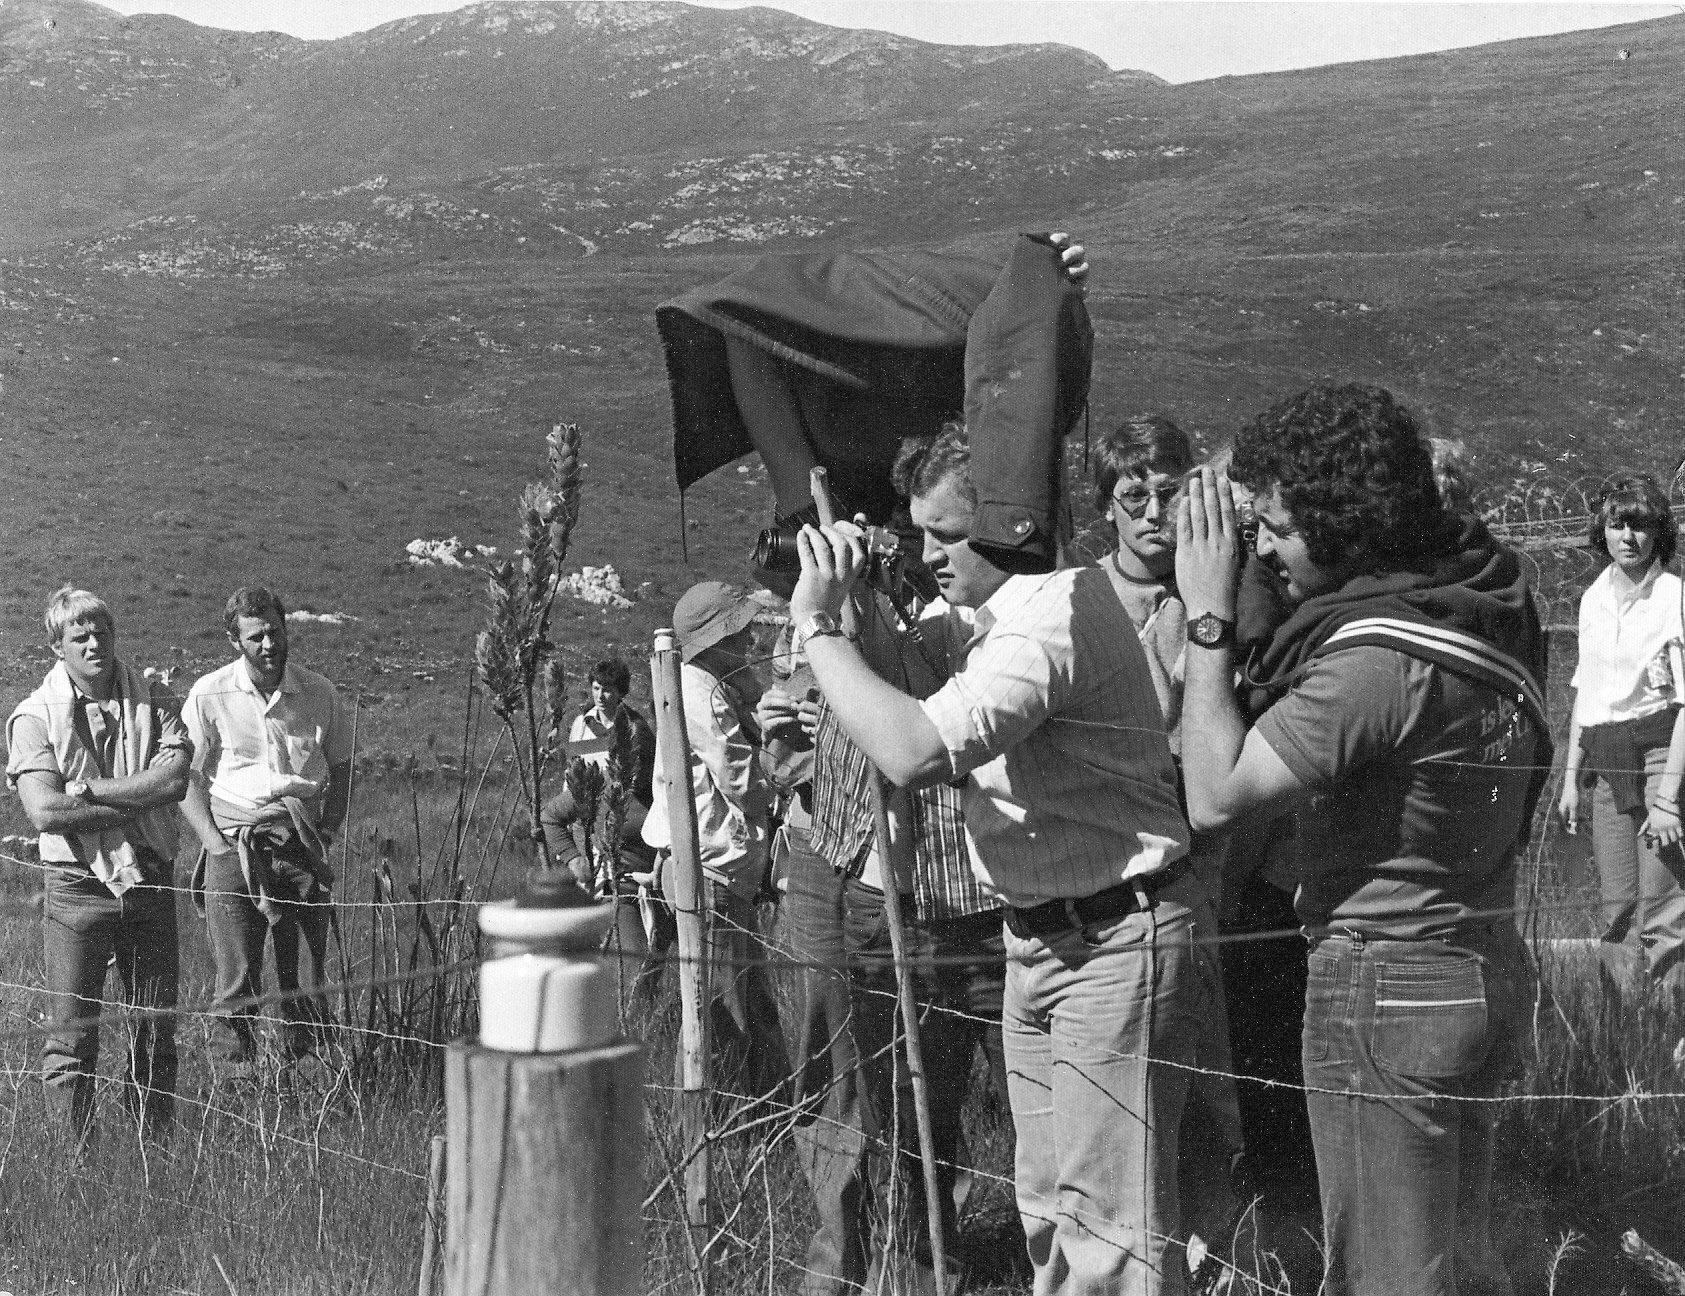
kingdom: Plantae
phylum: Tracheophyta
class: Magnoliopsida
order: Proteales
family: Proteaceae
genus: Orothamnus
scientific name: Orothamnus zeyheri
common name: Marsh rose
